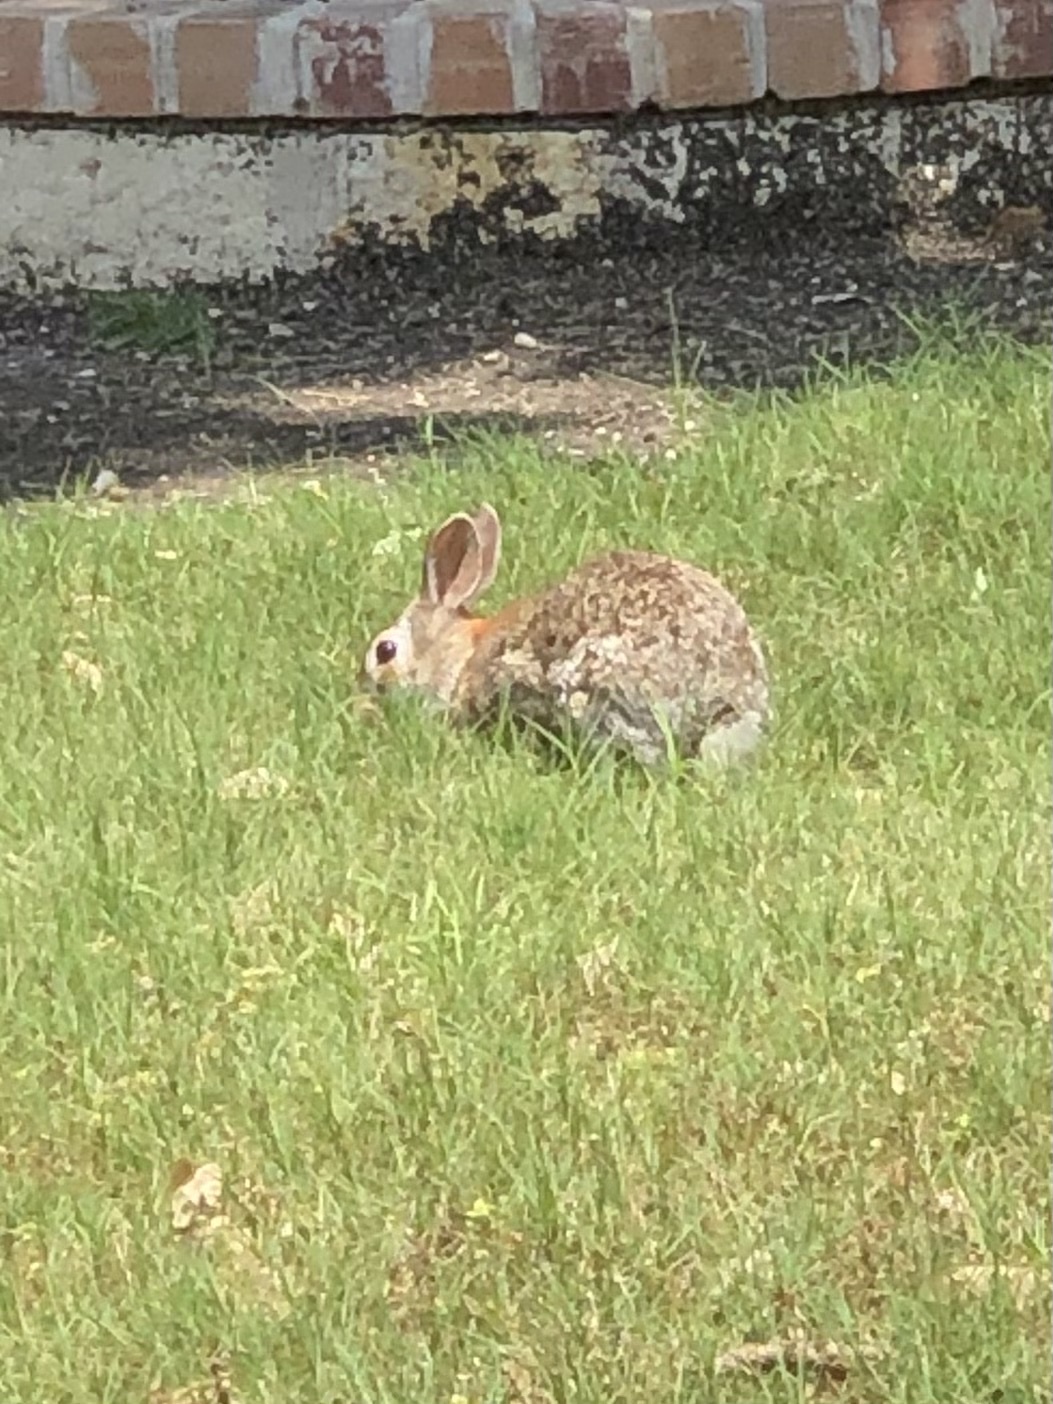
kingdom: Animalia
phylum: Chordata
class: Mammalia
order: Lagomorpha
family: Leporidae
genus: Sylvilagus
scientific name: Sylvilagus floridanus
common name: Eastern cottontail
